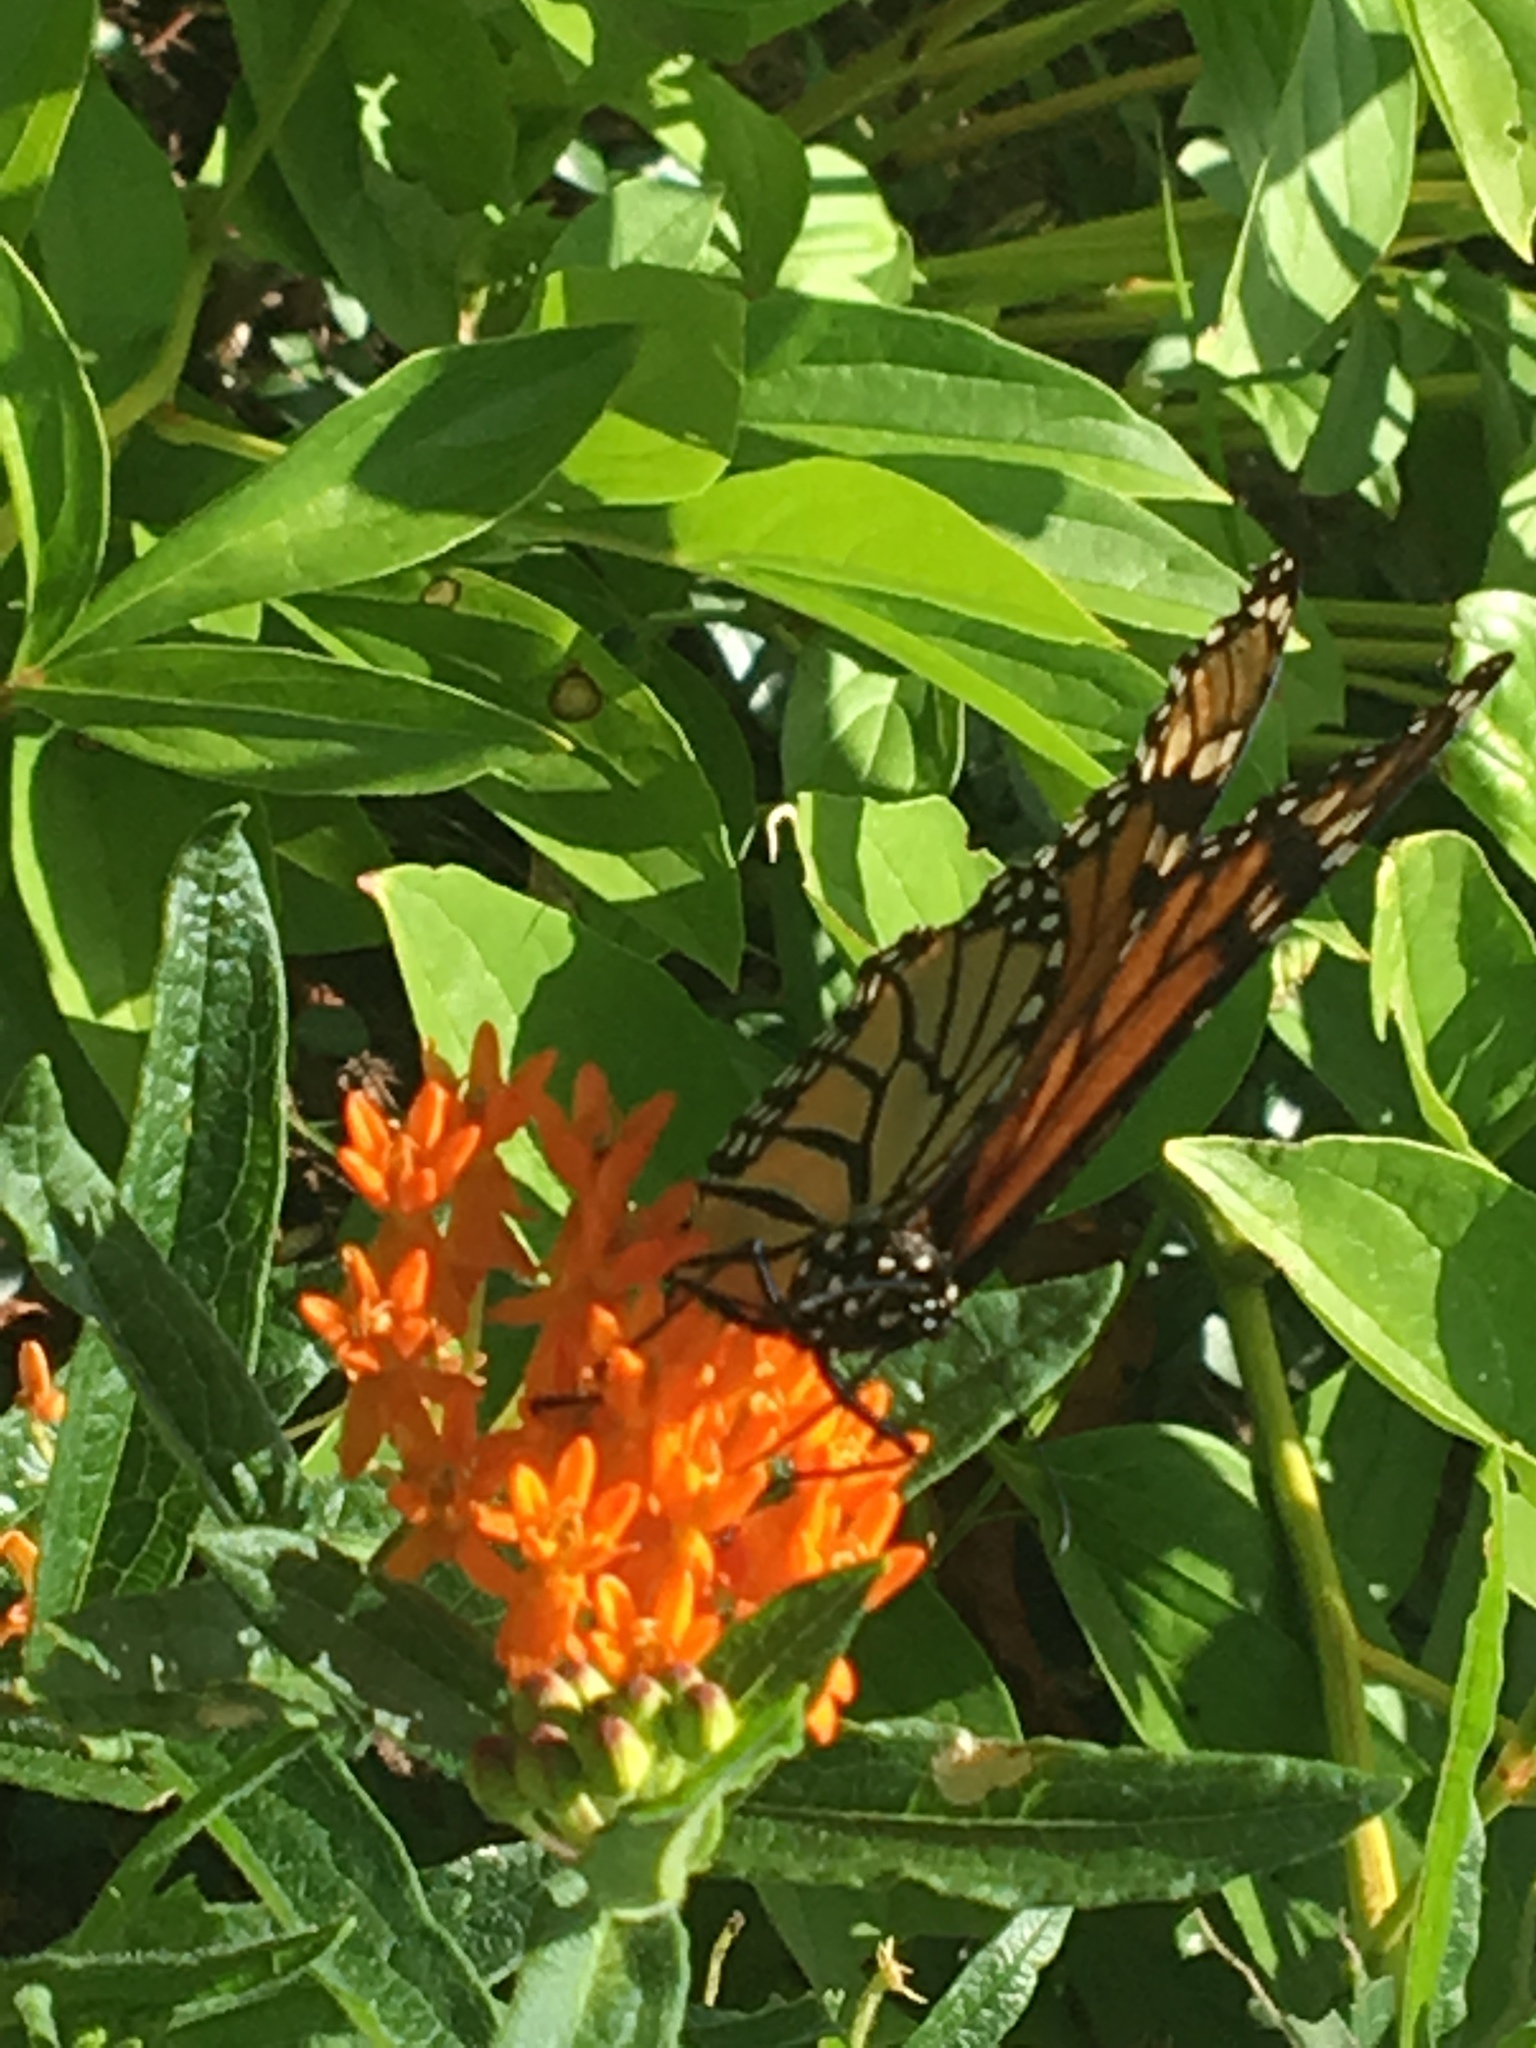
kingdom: Animalia
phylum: Arthropoda
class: Insecta
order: Lepidoptera
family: Nymphalidae
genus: Danaus
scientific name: Danaus plexippus
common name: Monarch
